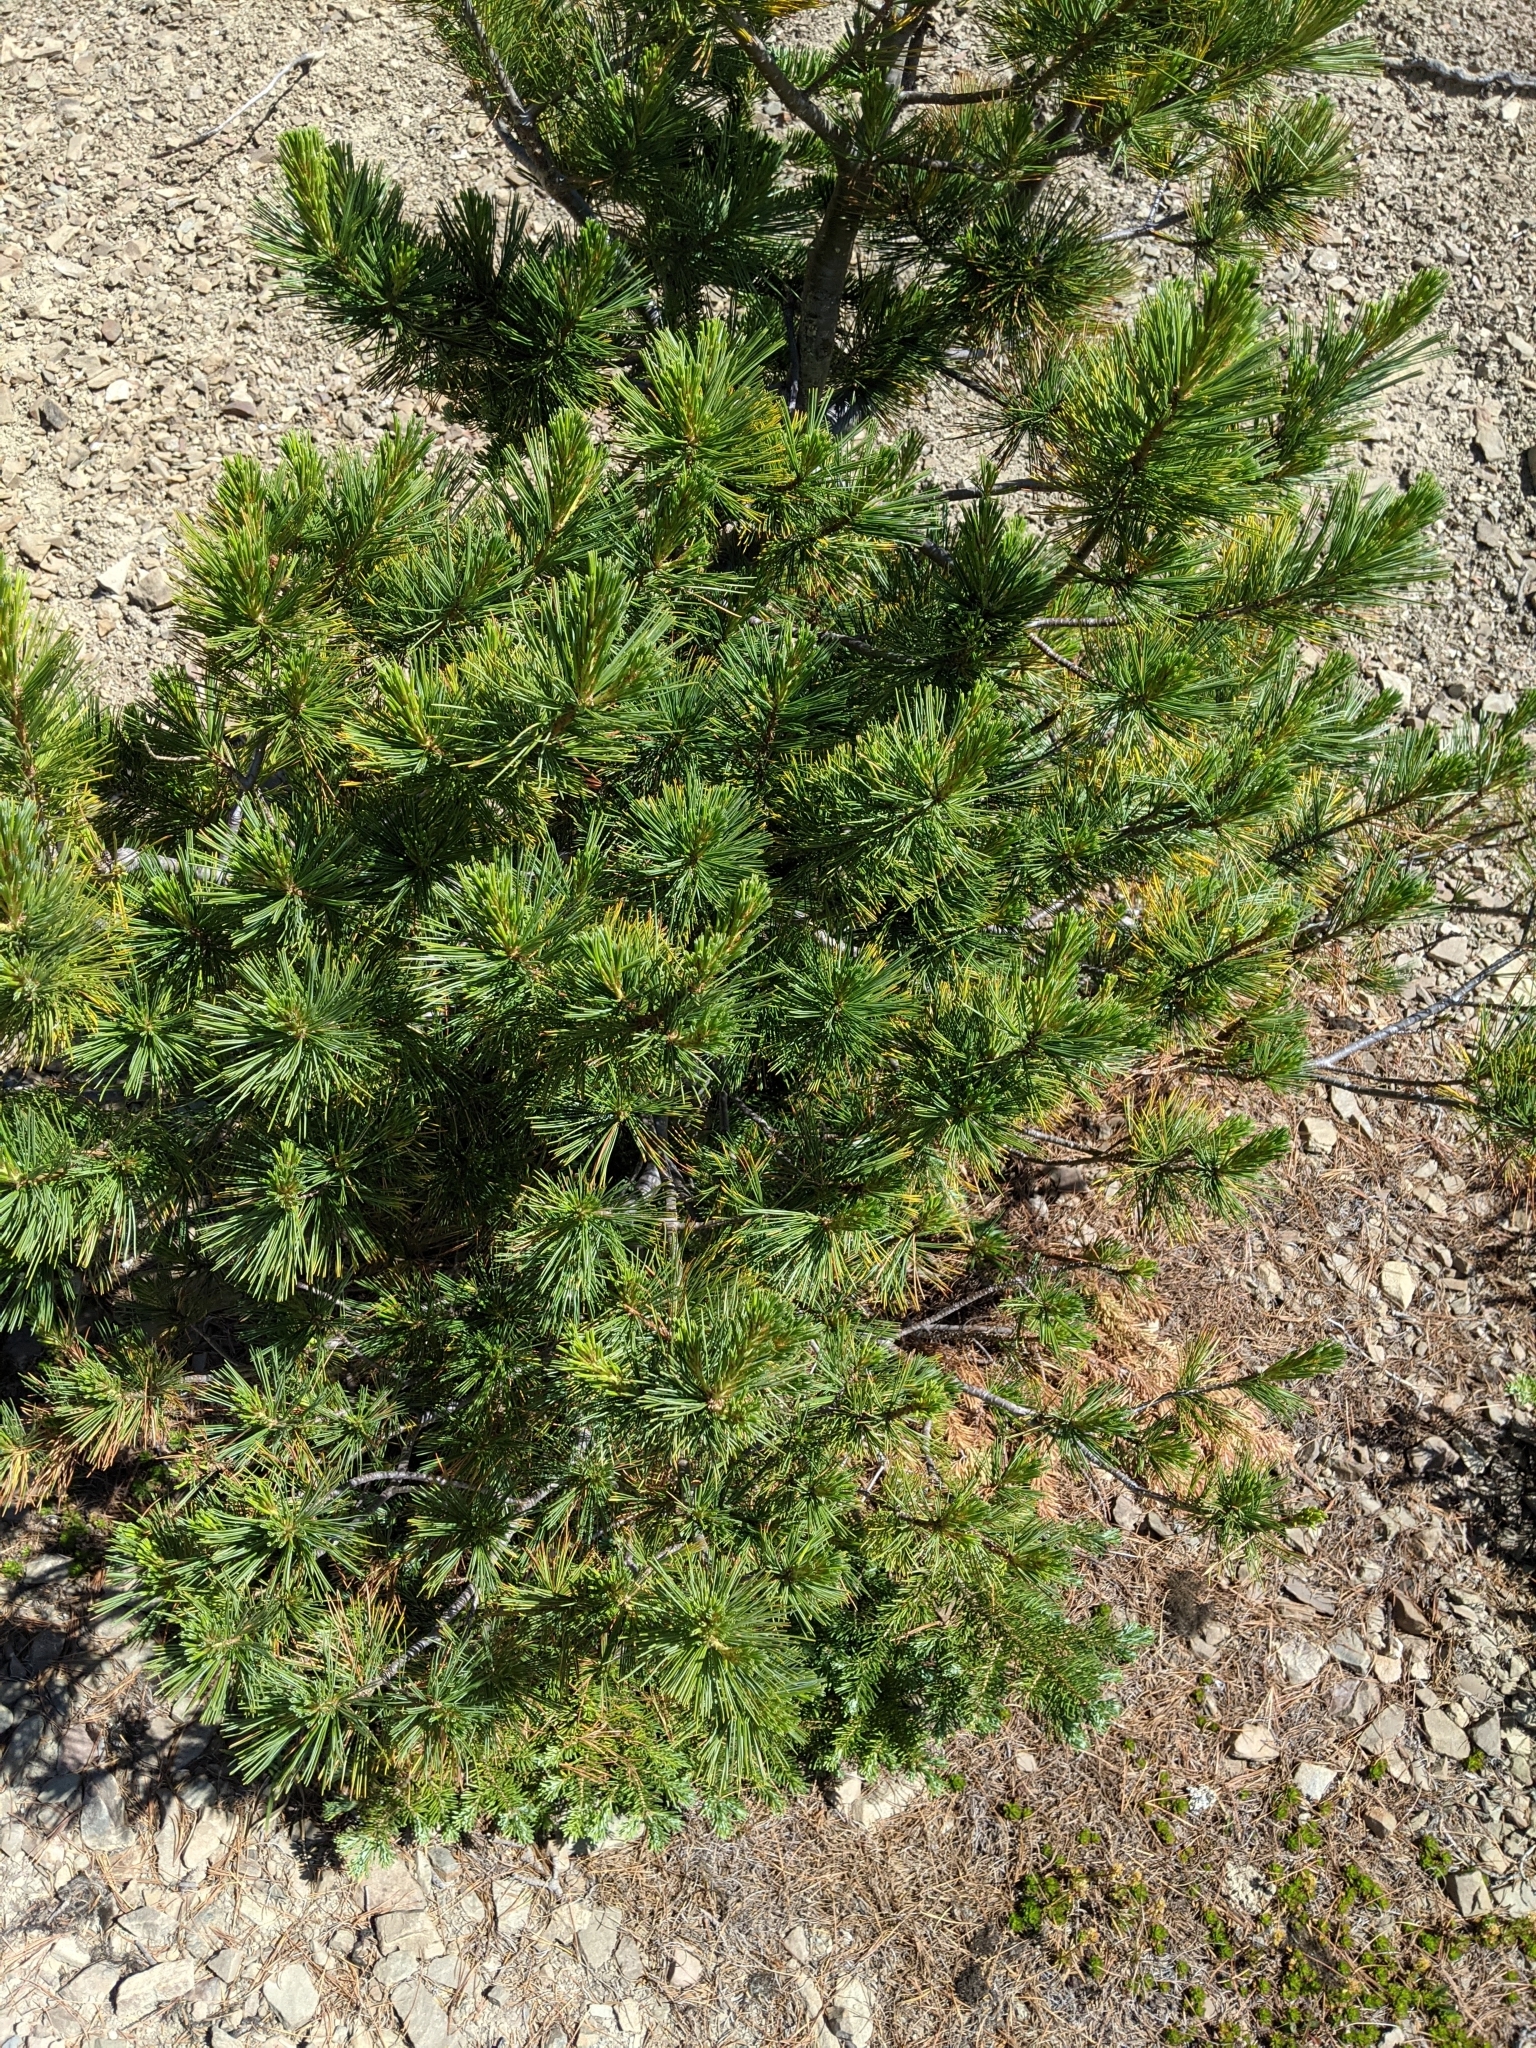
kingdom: Plantae
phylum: Tracheophyta
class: Pinopsida
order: Pinales
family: Pinaceae
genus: Pinus
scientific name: Pinus albicaulis
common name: Whitebark pine
